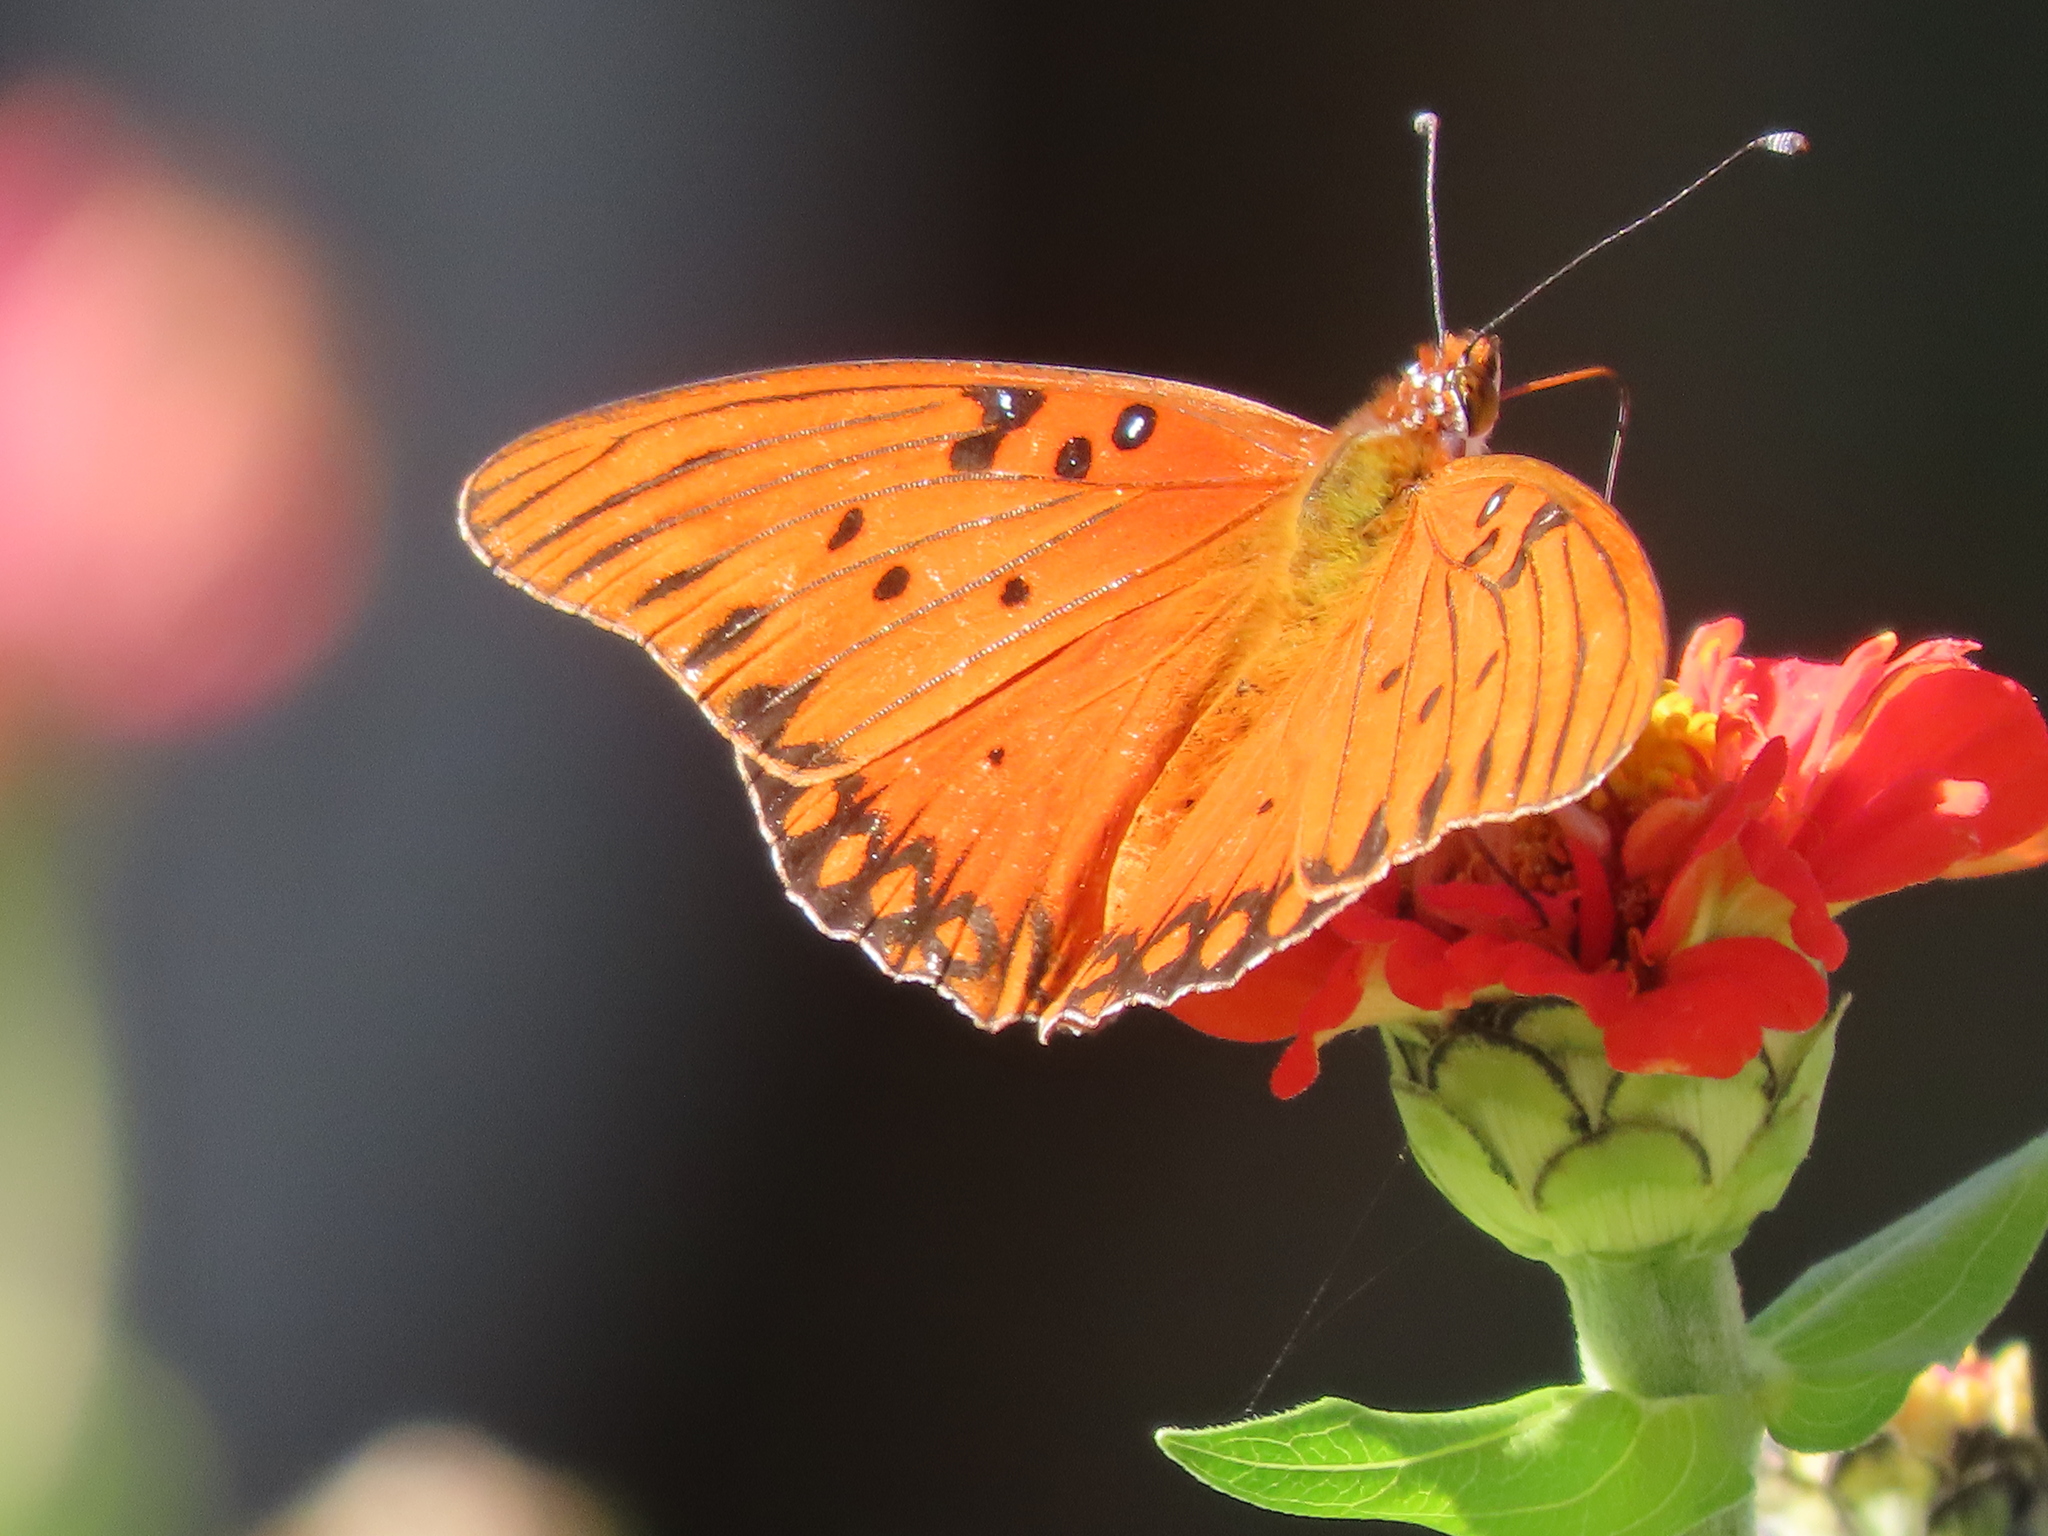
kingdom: Animalia
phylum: Arthropoda
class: Insecta
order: Lepidoptera
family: Nymphalidae
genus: Dione
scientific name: Dione vanillae
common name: Gulf fritillary
